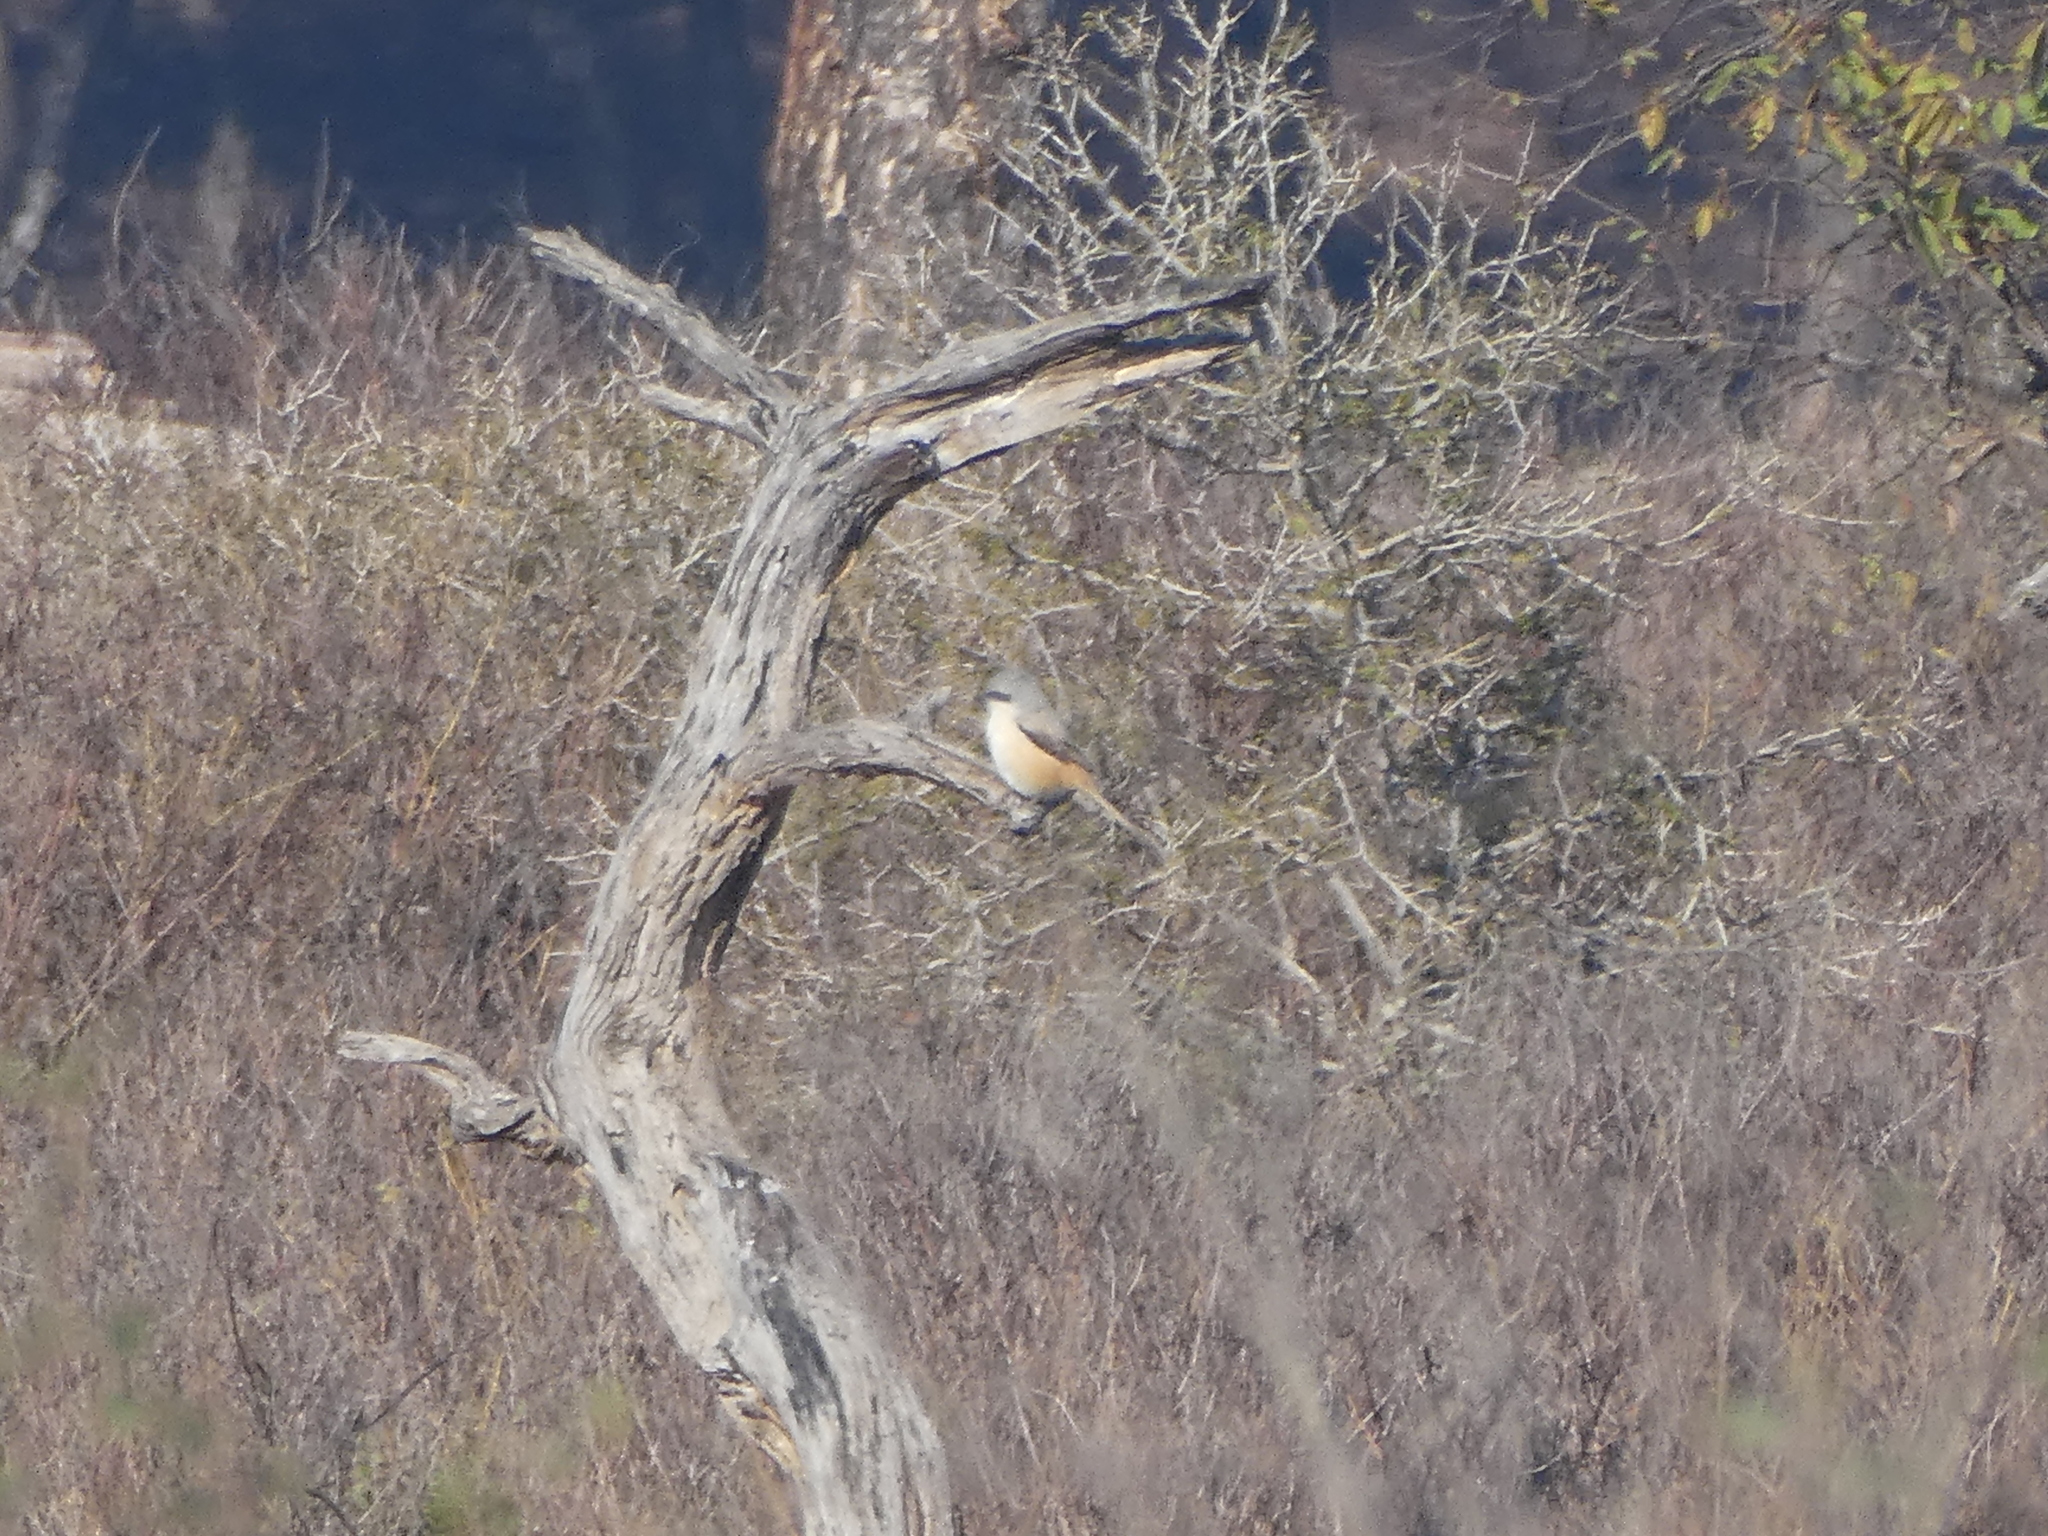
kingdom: Animalia
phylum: Chordata
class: Aves
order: Passeriformes
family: Laniidae
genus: Lanius
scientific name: Lanius schach
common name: Long-tailed shrike
